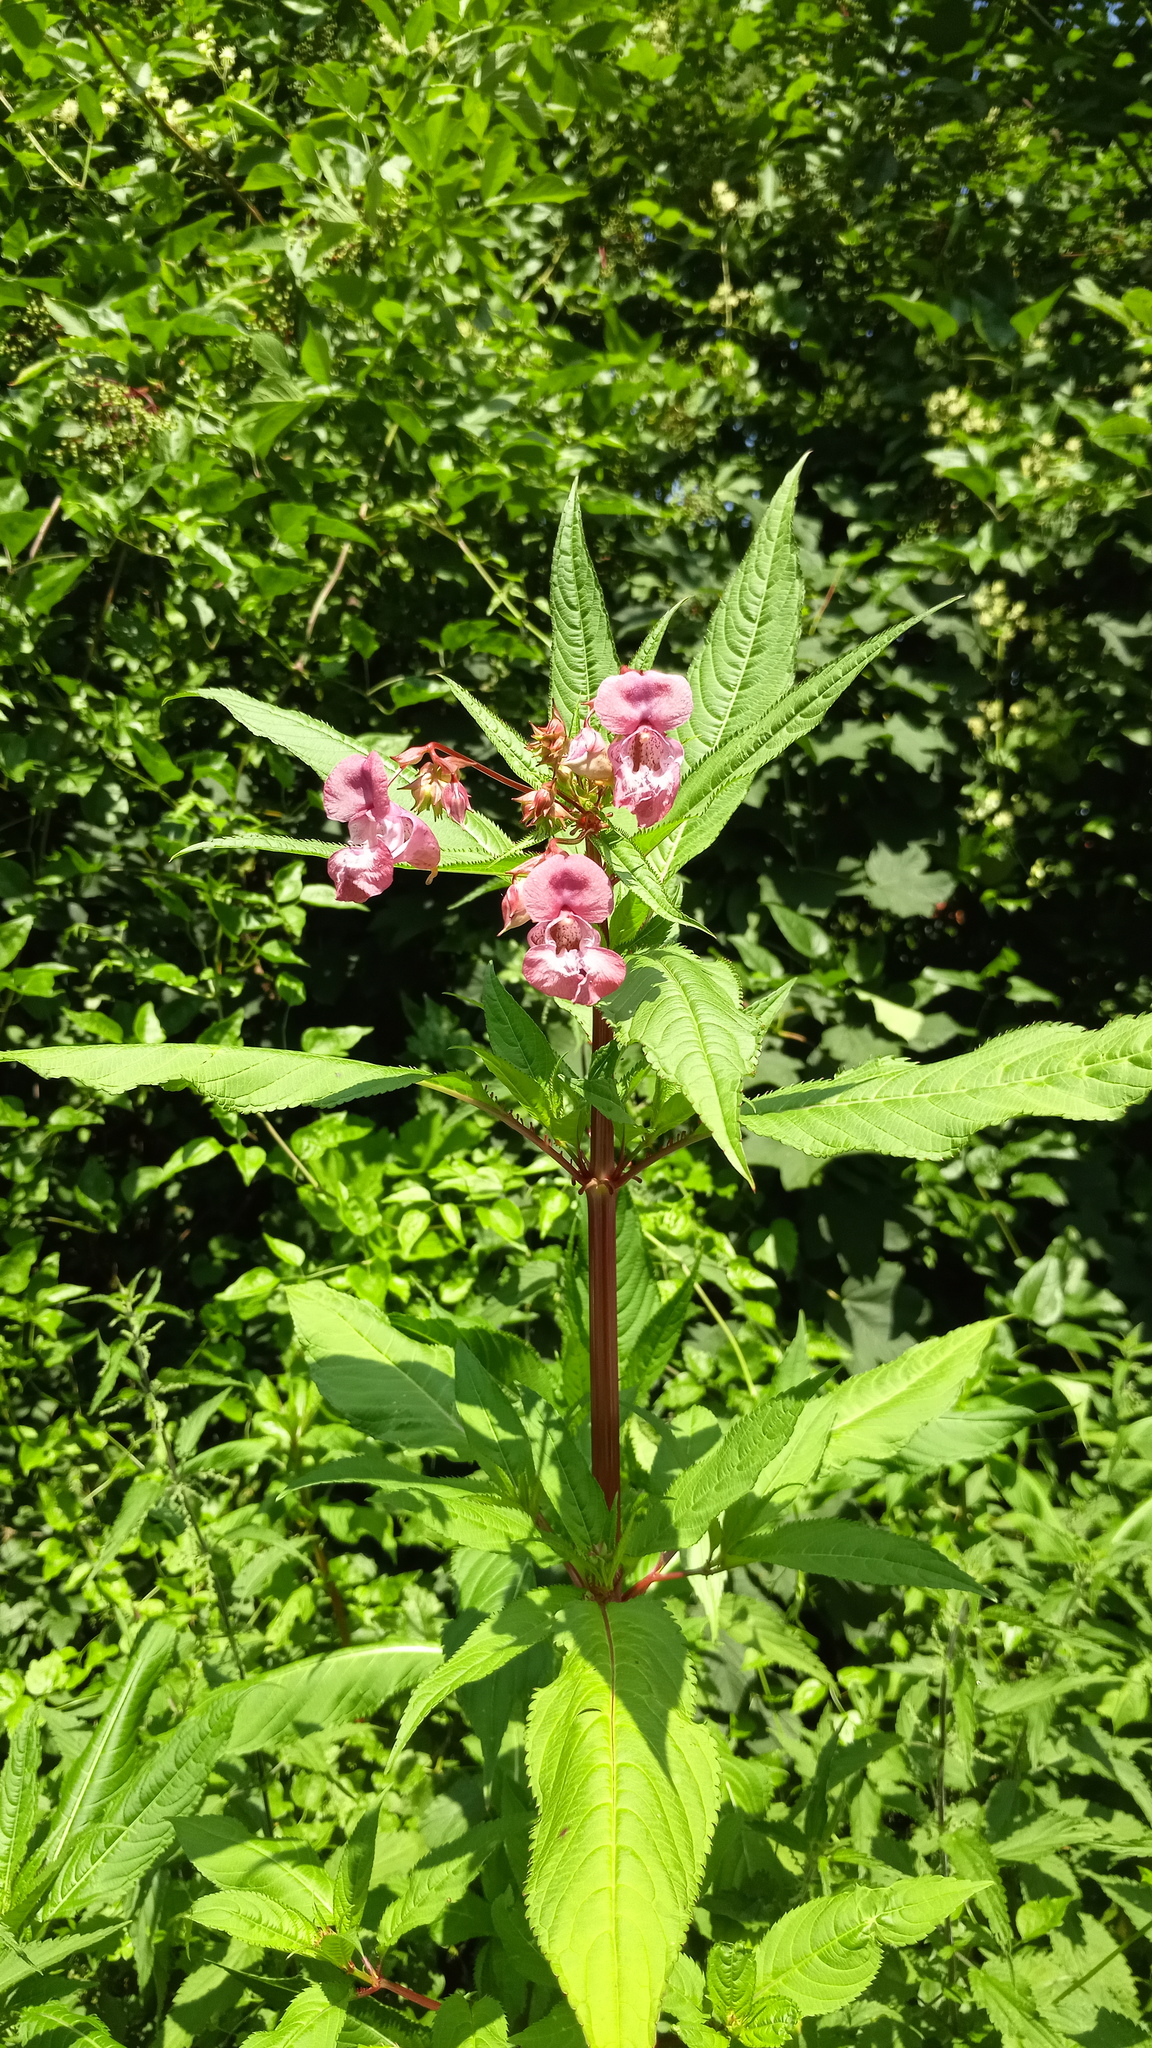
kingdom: Plantae
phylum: Tracheophyta
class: Magnoliopsida
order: Ericales
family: Balsaminaceae
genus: Impatiens
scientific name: Impatiens glandulifera
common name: Himalayan balsam
